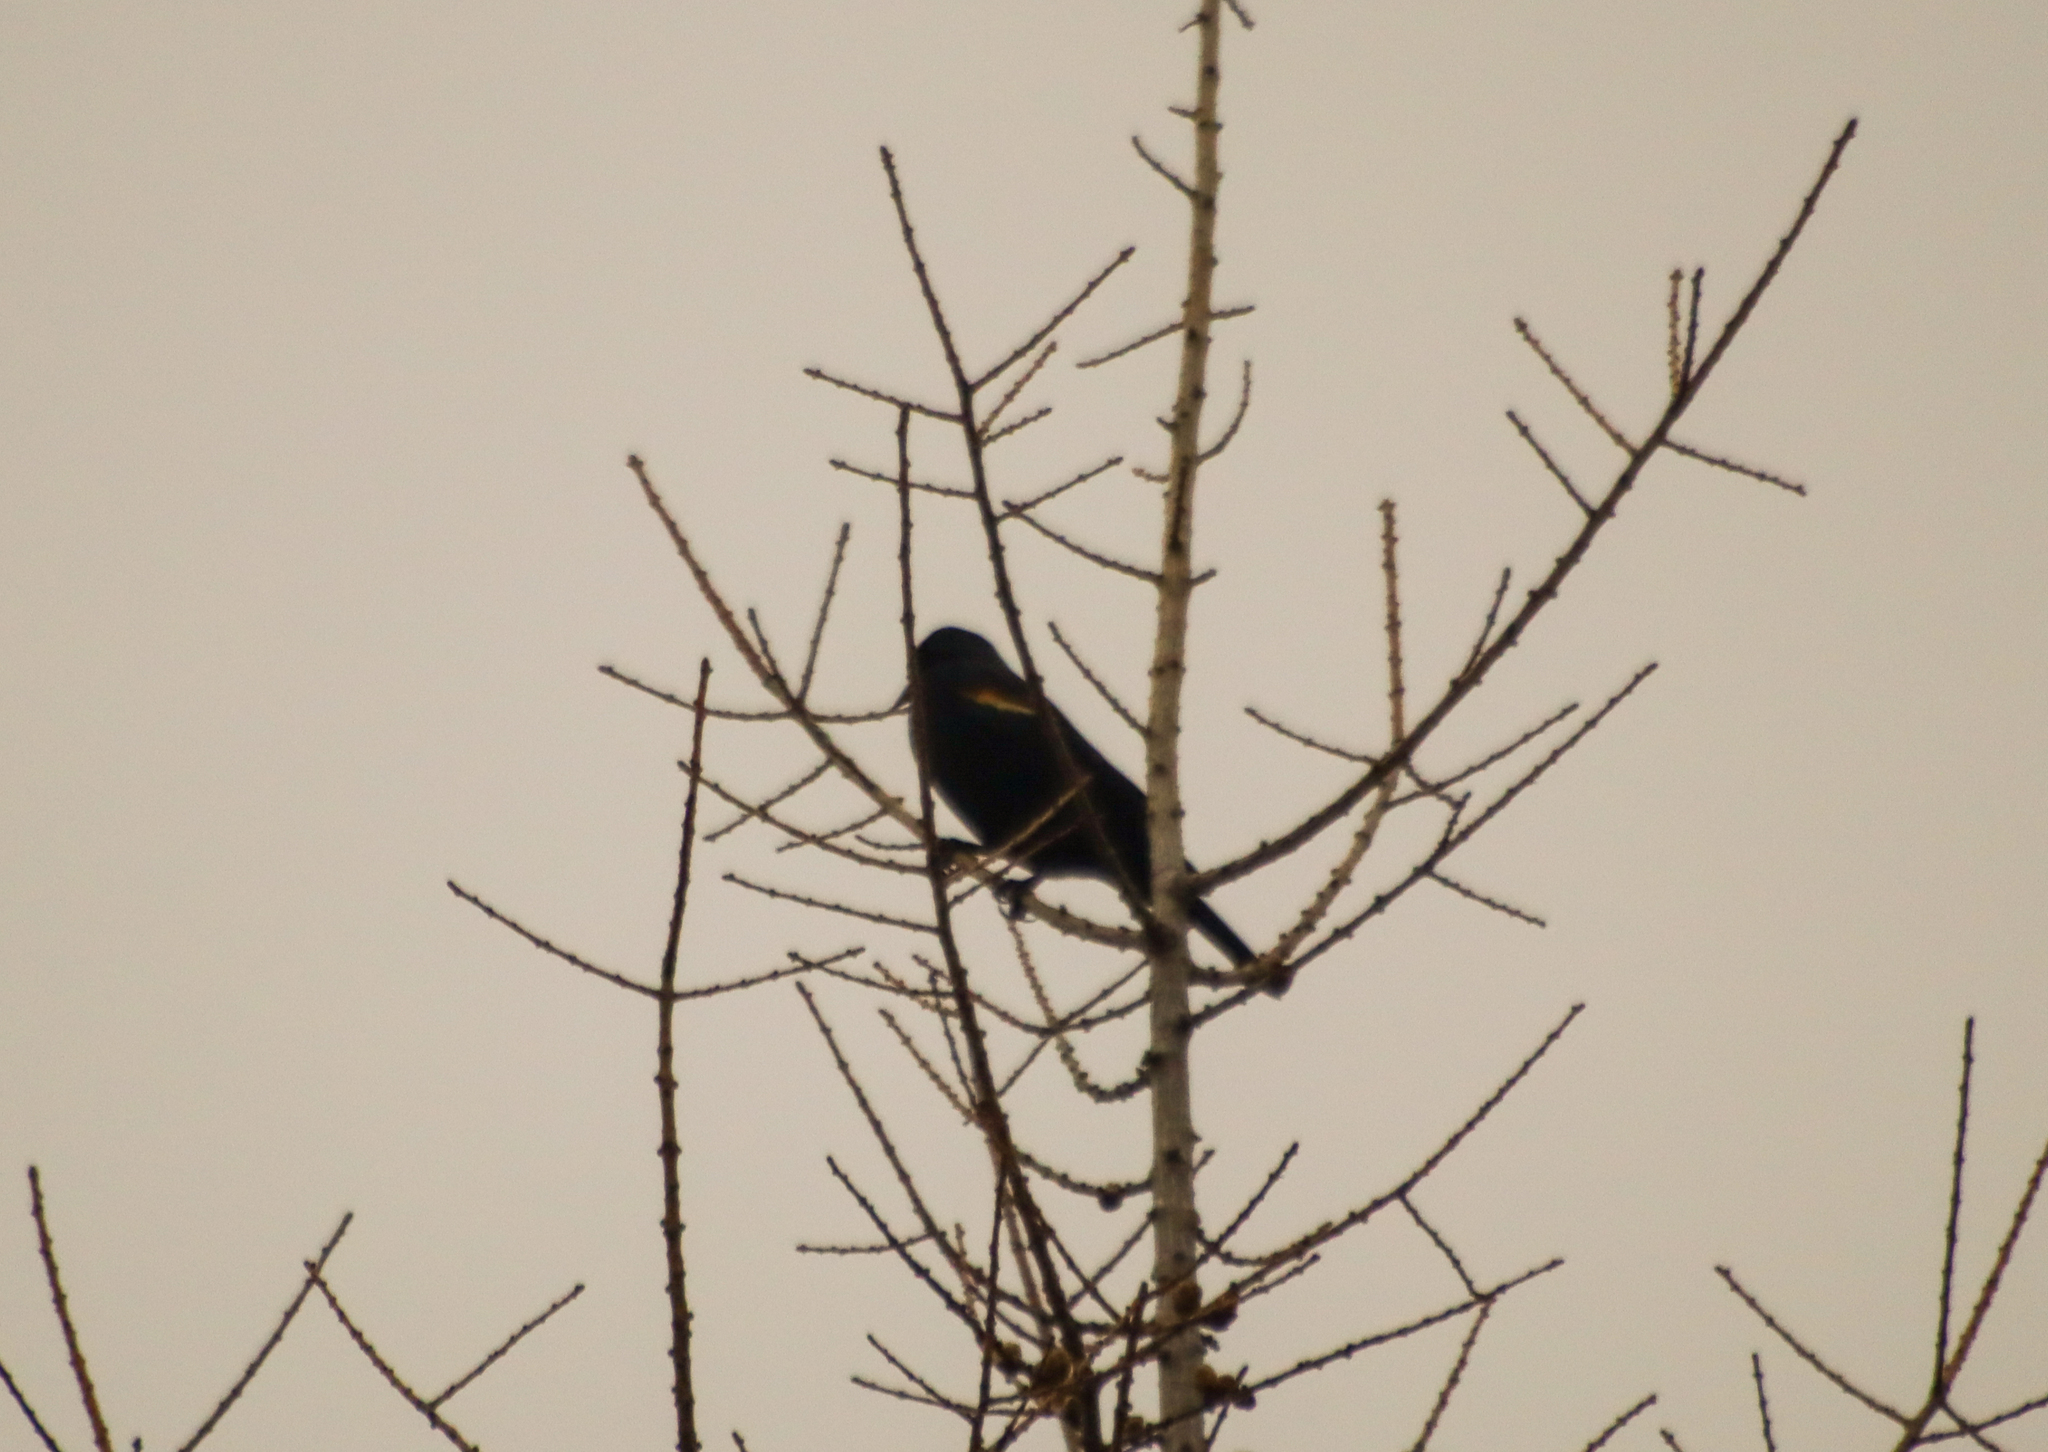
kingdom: Animalia
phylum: Chordata
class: Aves
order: Passeriformes
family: Icteridae
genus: Agelaius
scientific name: Agelaius phoeniceus
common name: Red-winged blackbird
